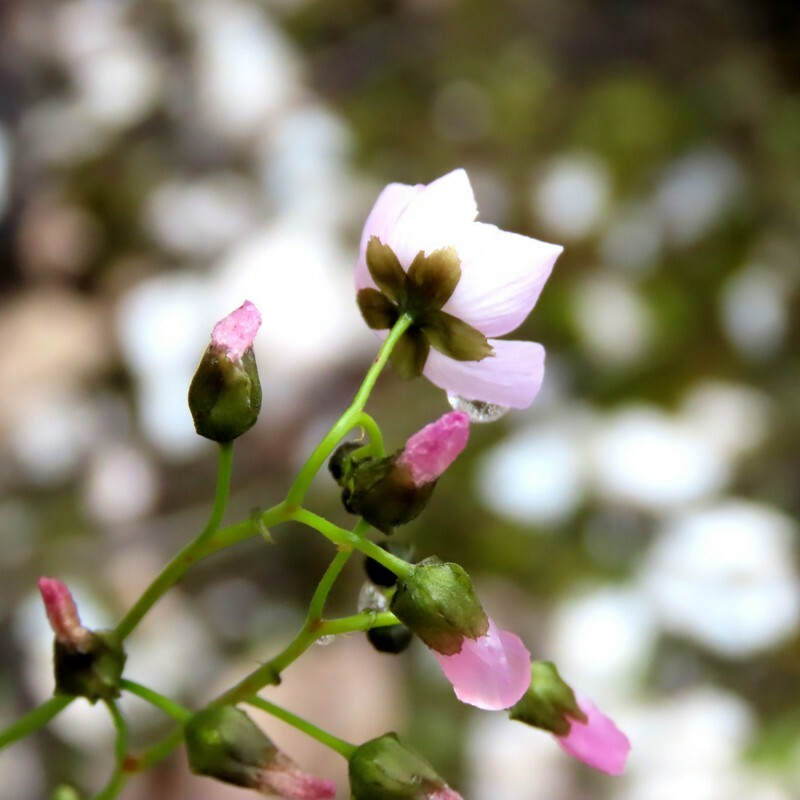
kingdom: Plantae
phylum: Tracheophyta
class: Magnoliopsida
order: Caryophyllales
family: Droseraceae
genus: Drosera
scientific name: Drosera peltata
